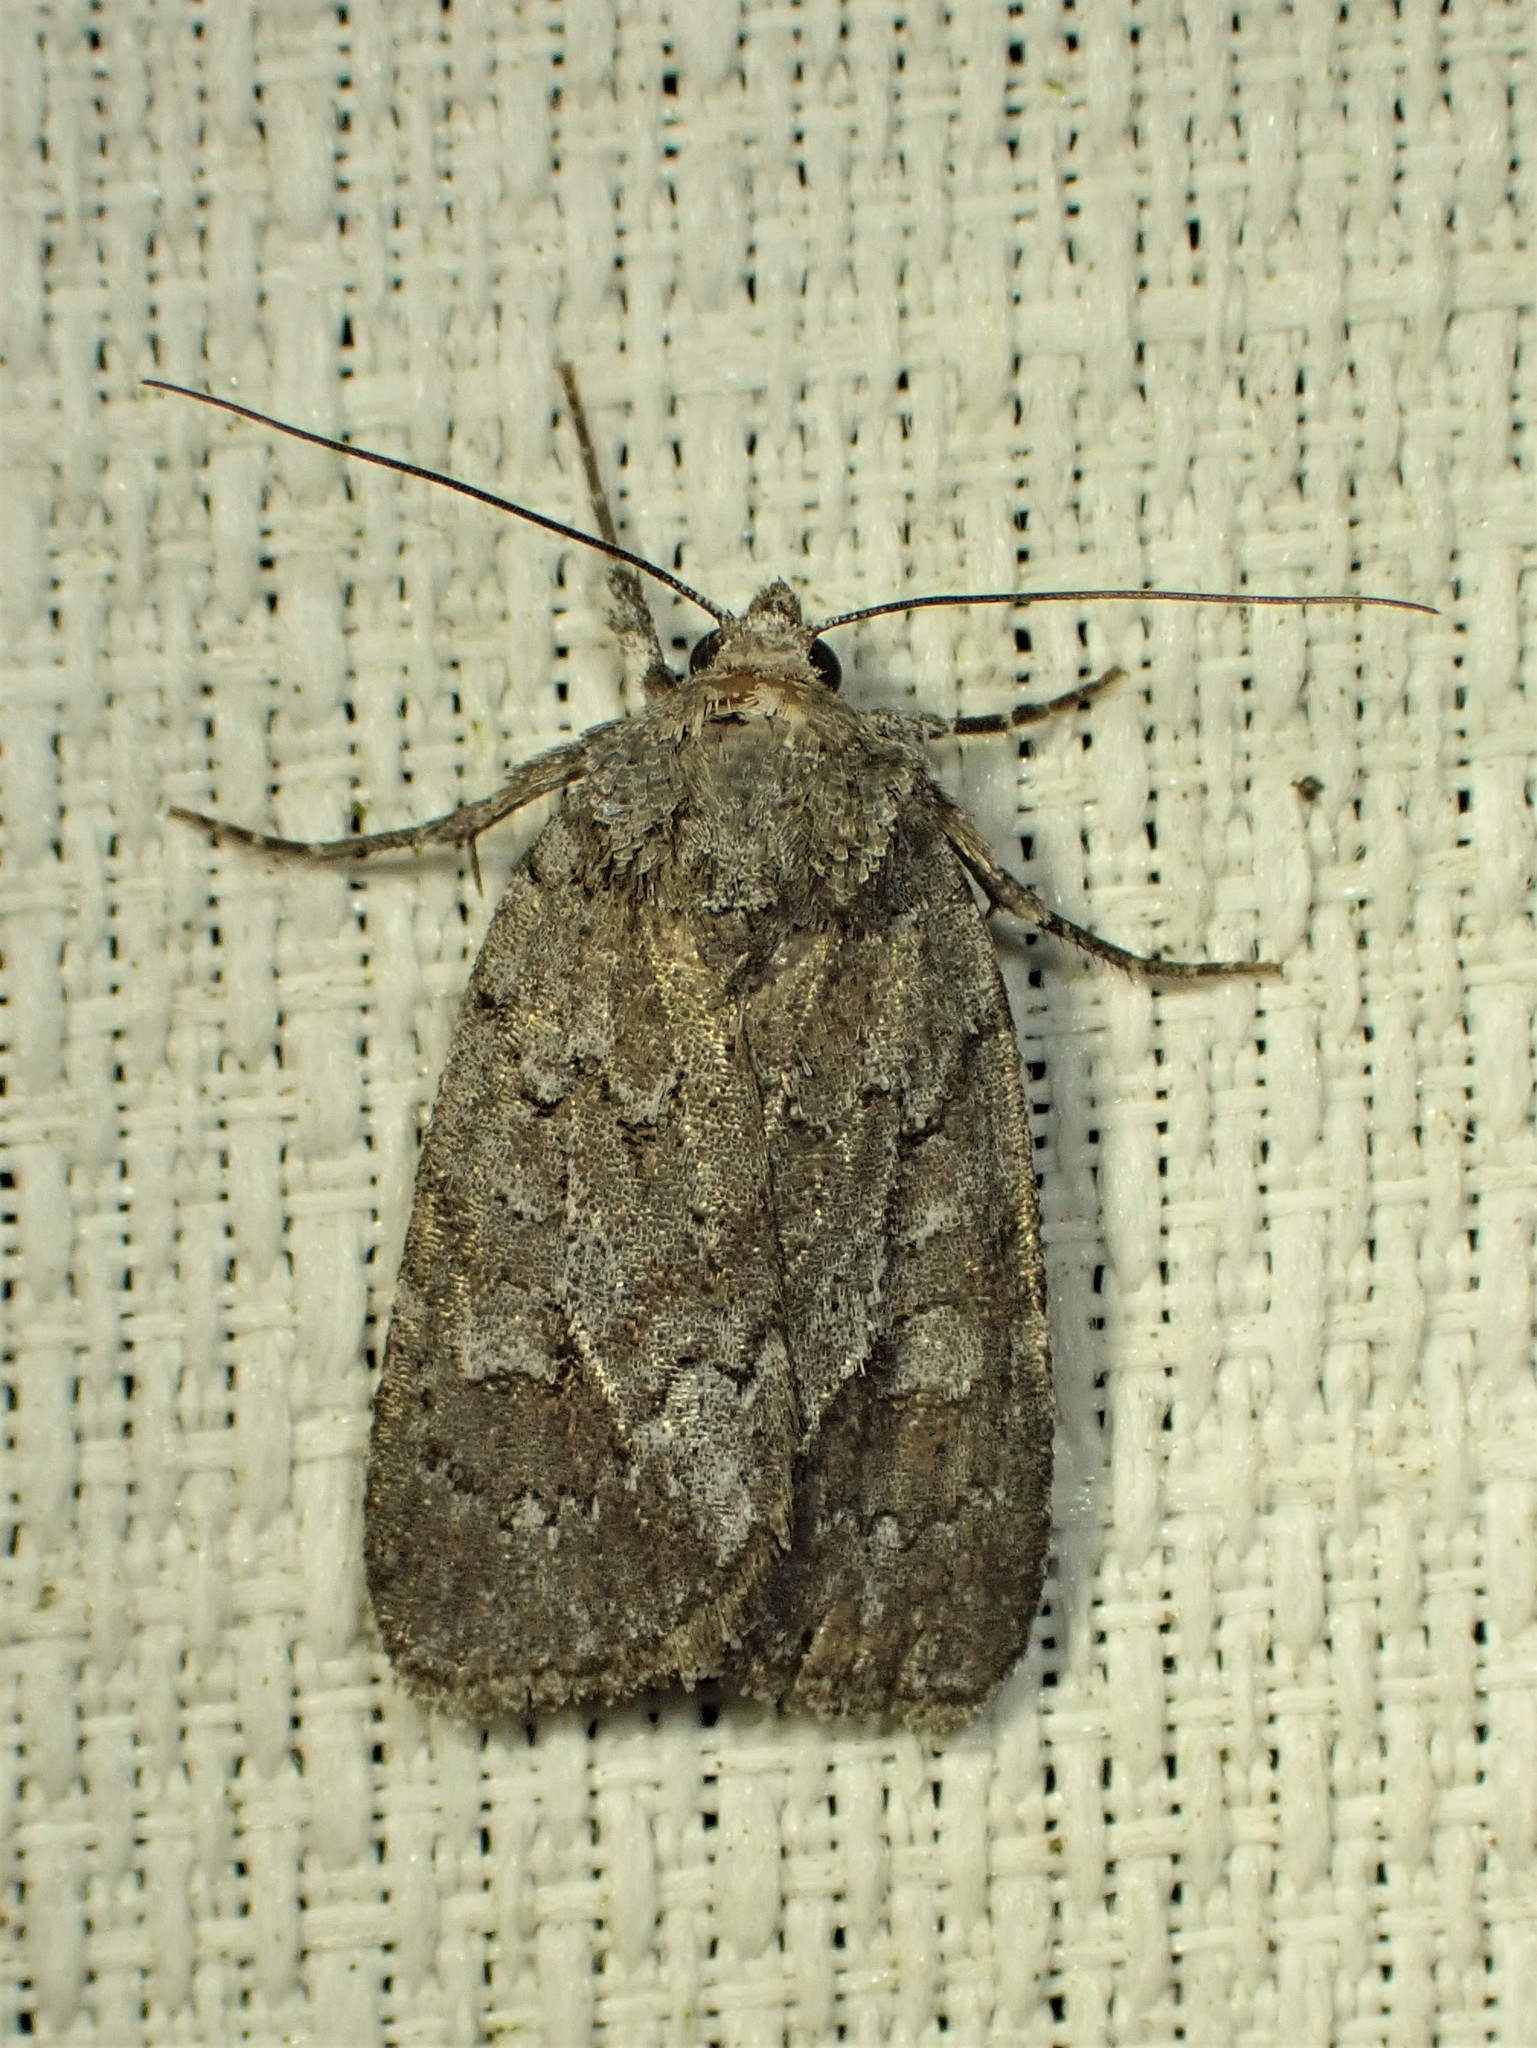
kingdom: Animalia
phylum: Arthropoda
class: Insecta
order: Lepidoptera
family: Noctuidae
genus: Sympistis
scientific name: Sympistis dentata
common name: Blueberry sallow
